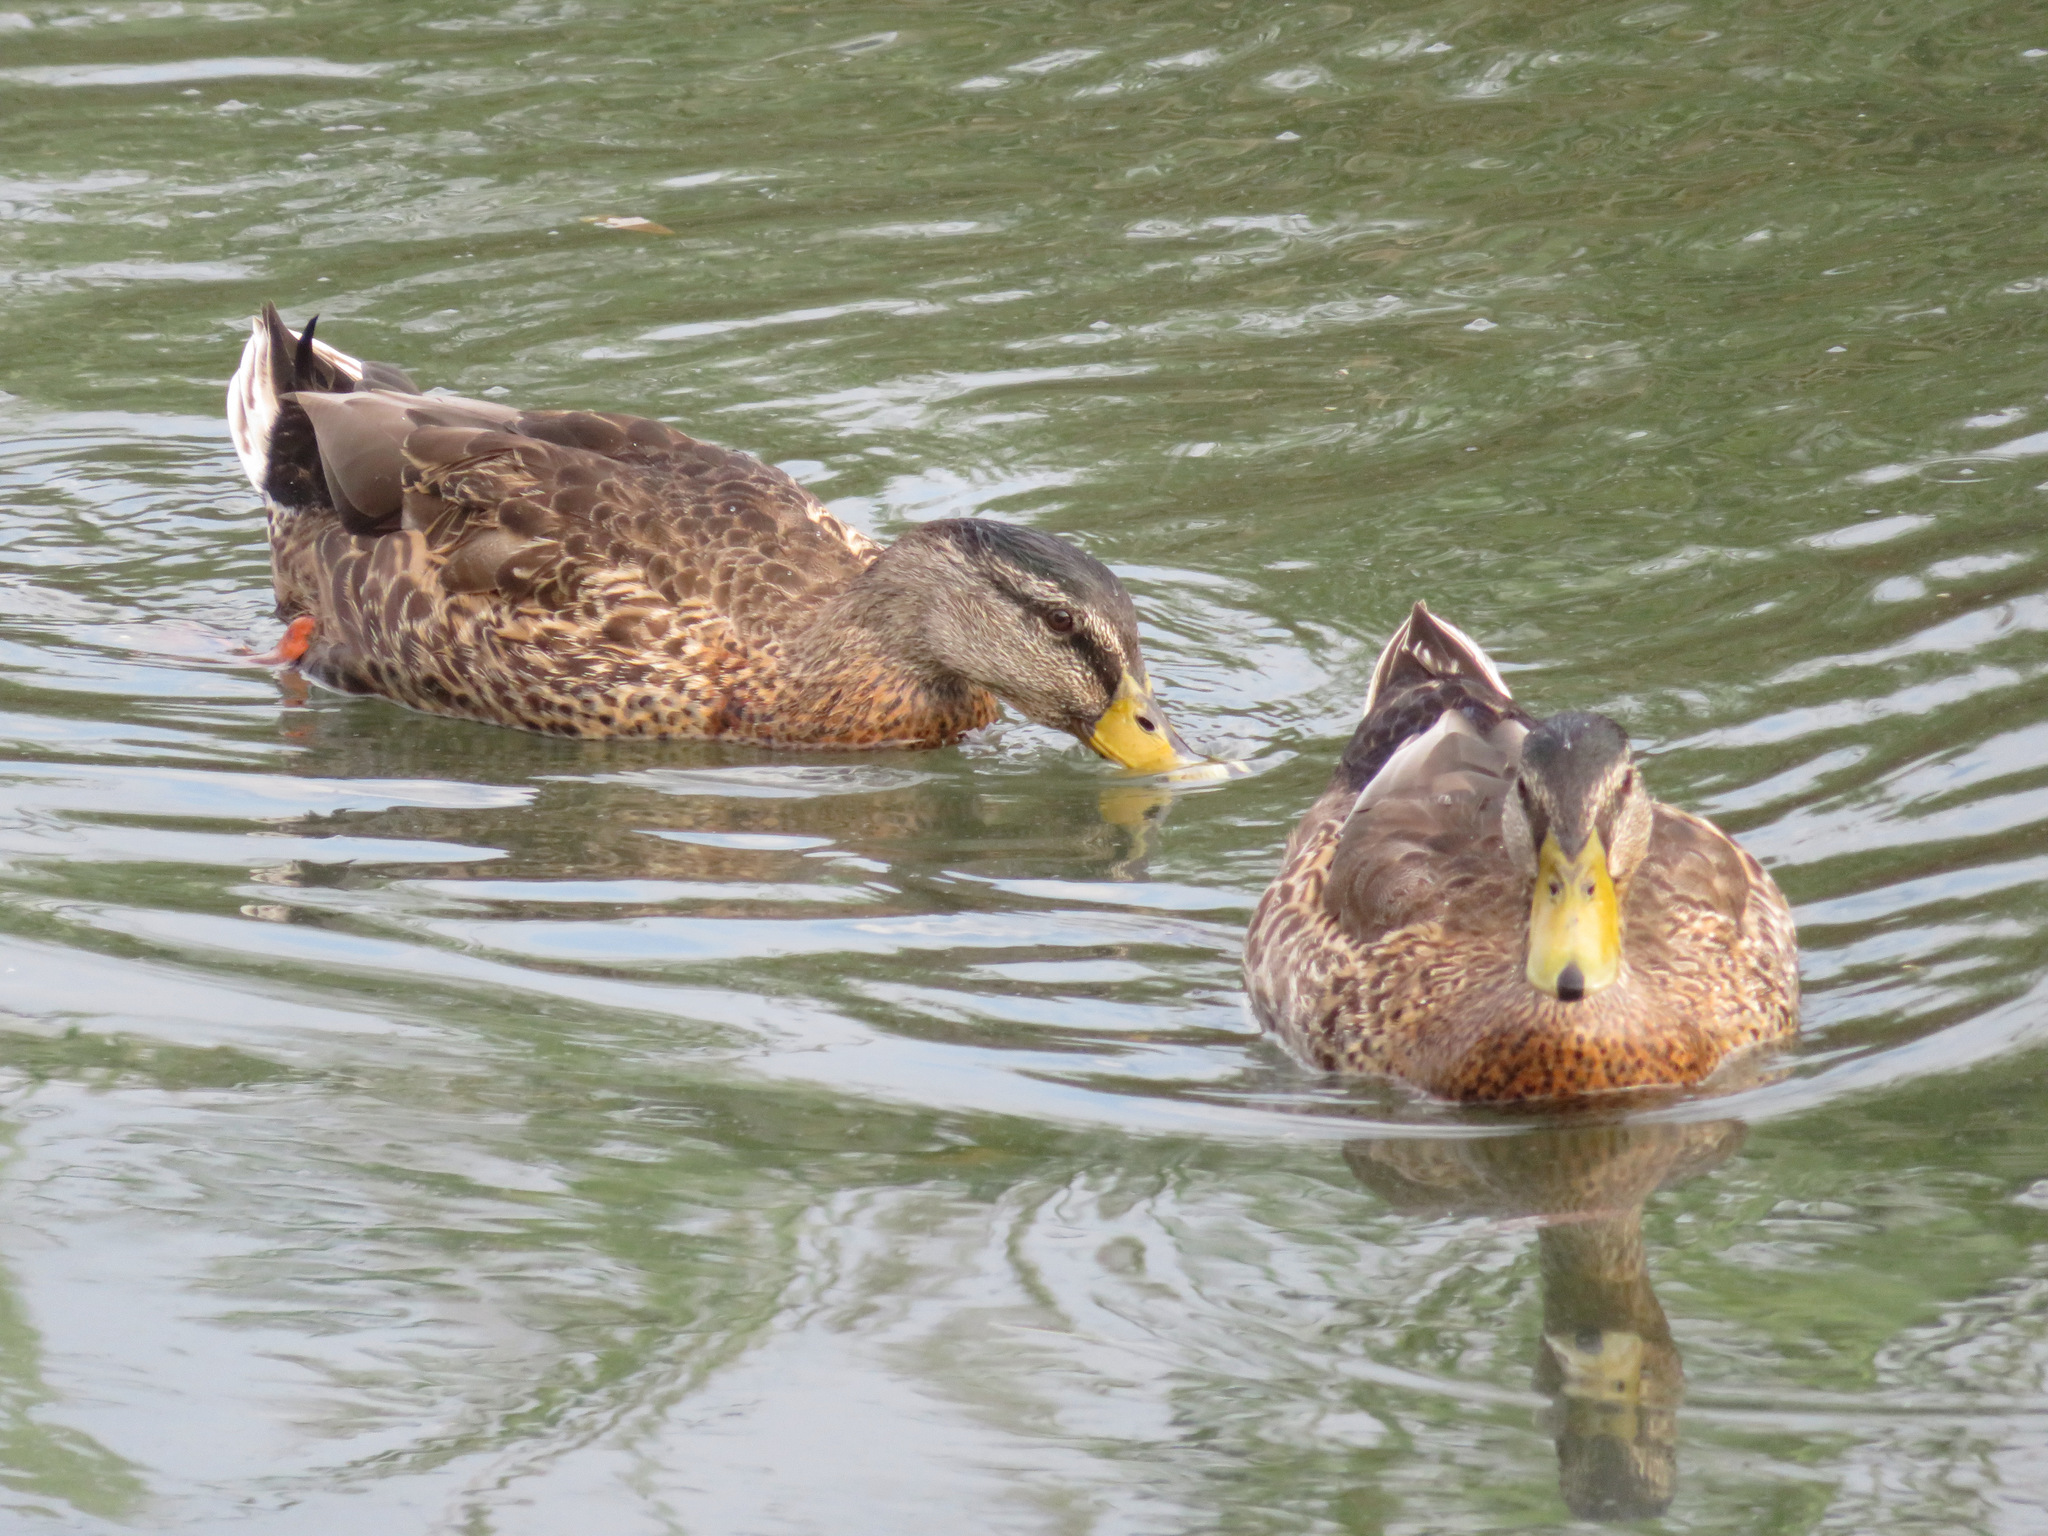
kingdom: Animalia
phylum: Chordata
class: Aves
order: Anseriformes
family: Anatidae
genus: Anas
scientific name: Anas platyrhynchos
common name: Mallard
